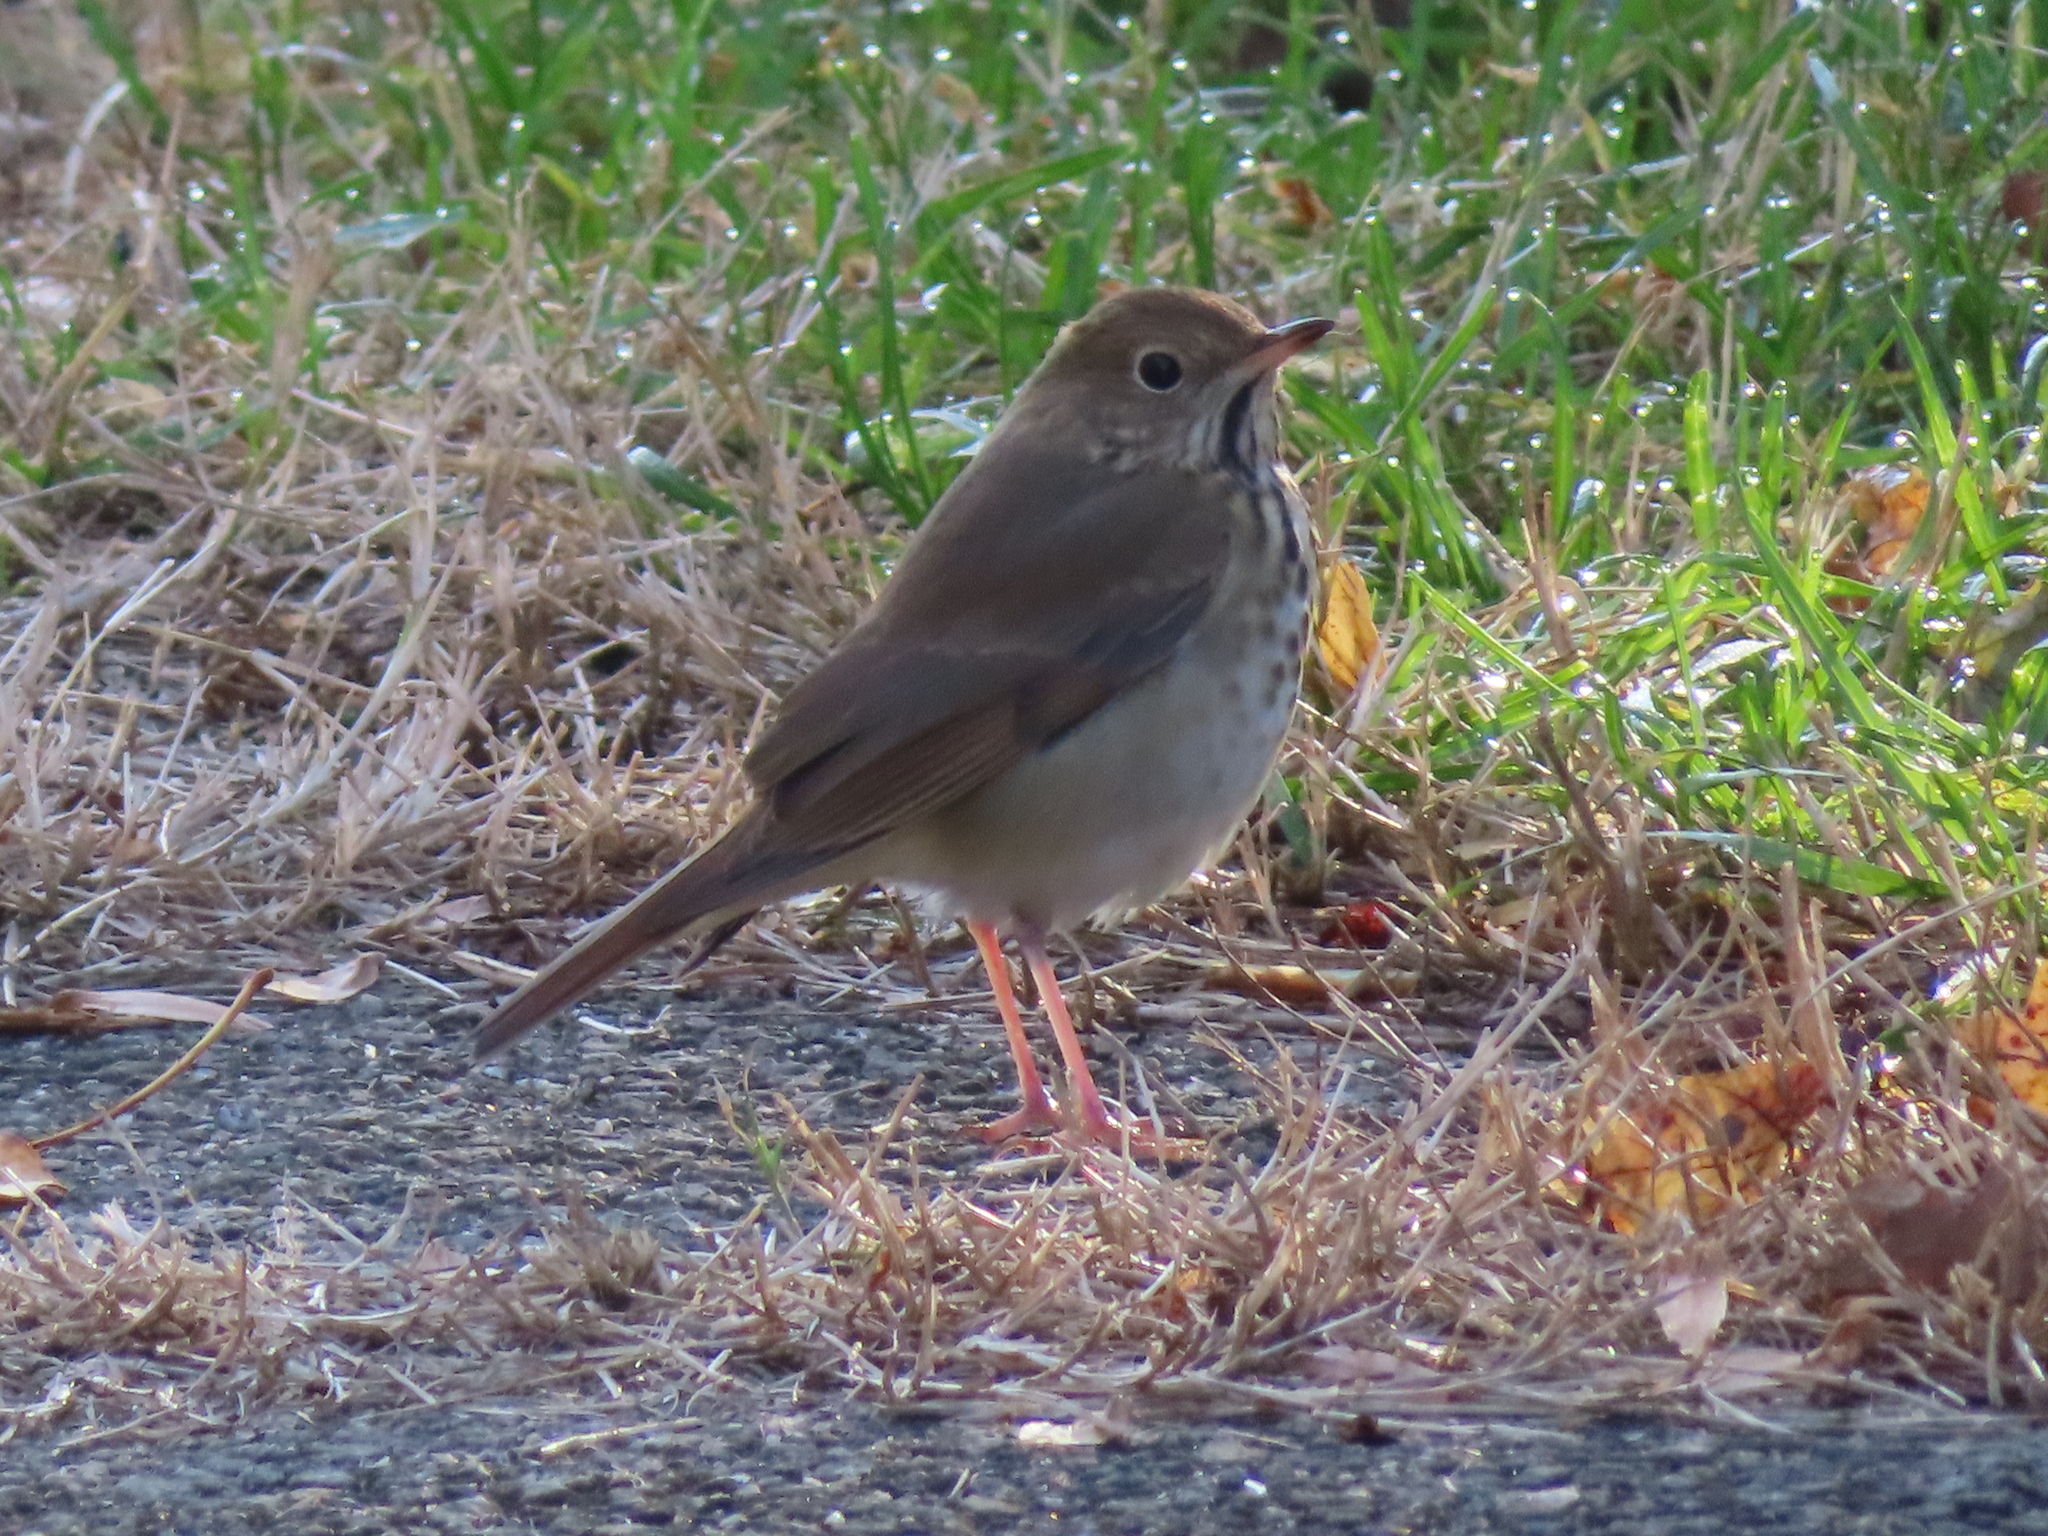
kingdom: Animalia
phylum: Chordata
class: Aves
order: Passeriformes
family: Turdidae
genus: Catharus
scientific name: Catharus guttatus
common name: Hermit thrush
